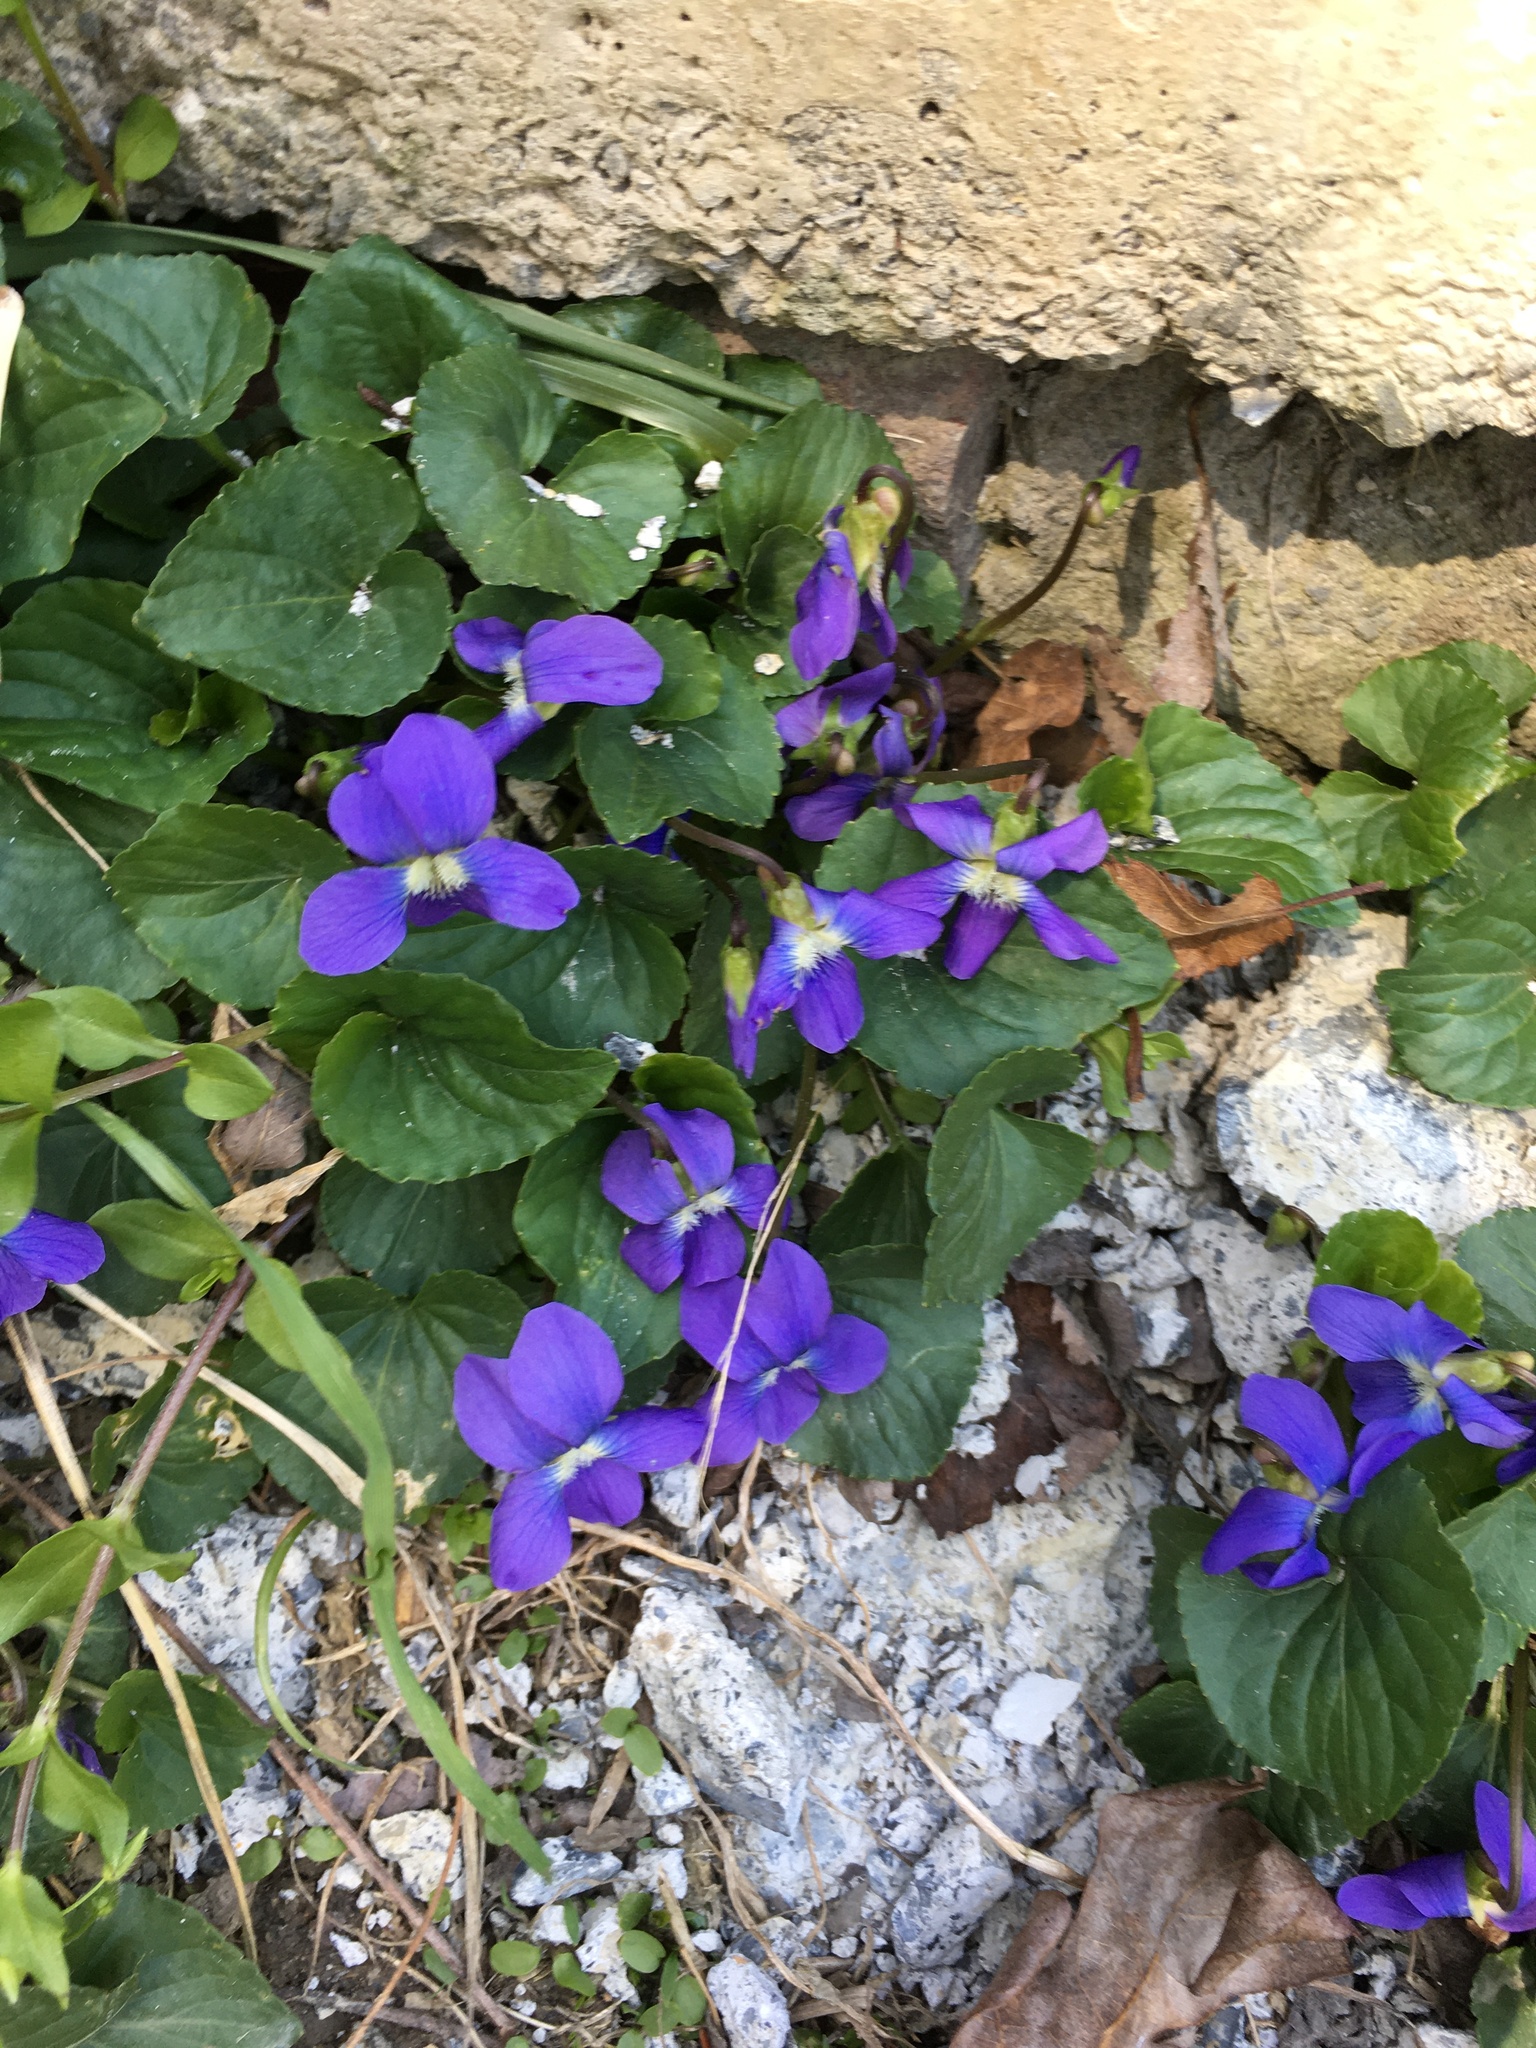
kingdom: Plantae
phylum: Tracheophyta
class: Magnoliopsida
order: Malpighiales
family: Violaceae
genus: Viola
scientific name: Viola sororia
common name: Dooryard violet
